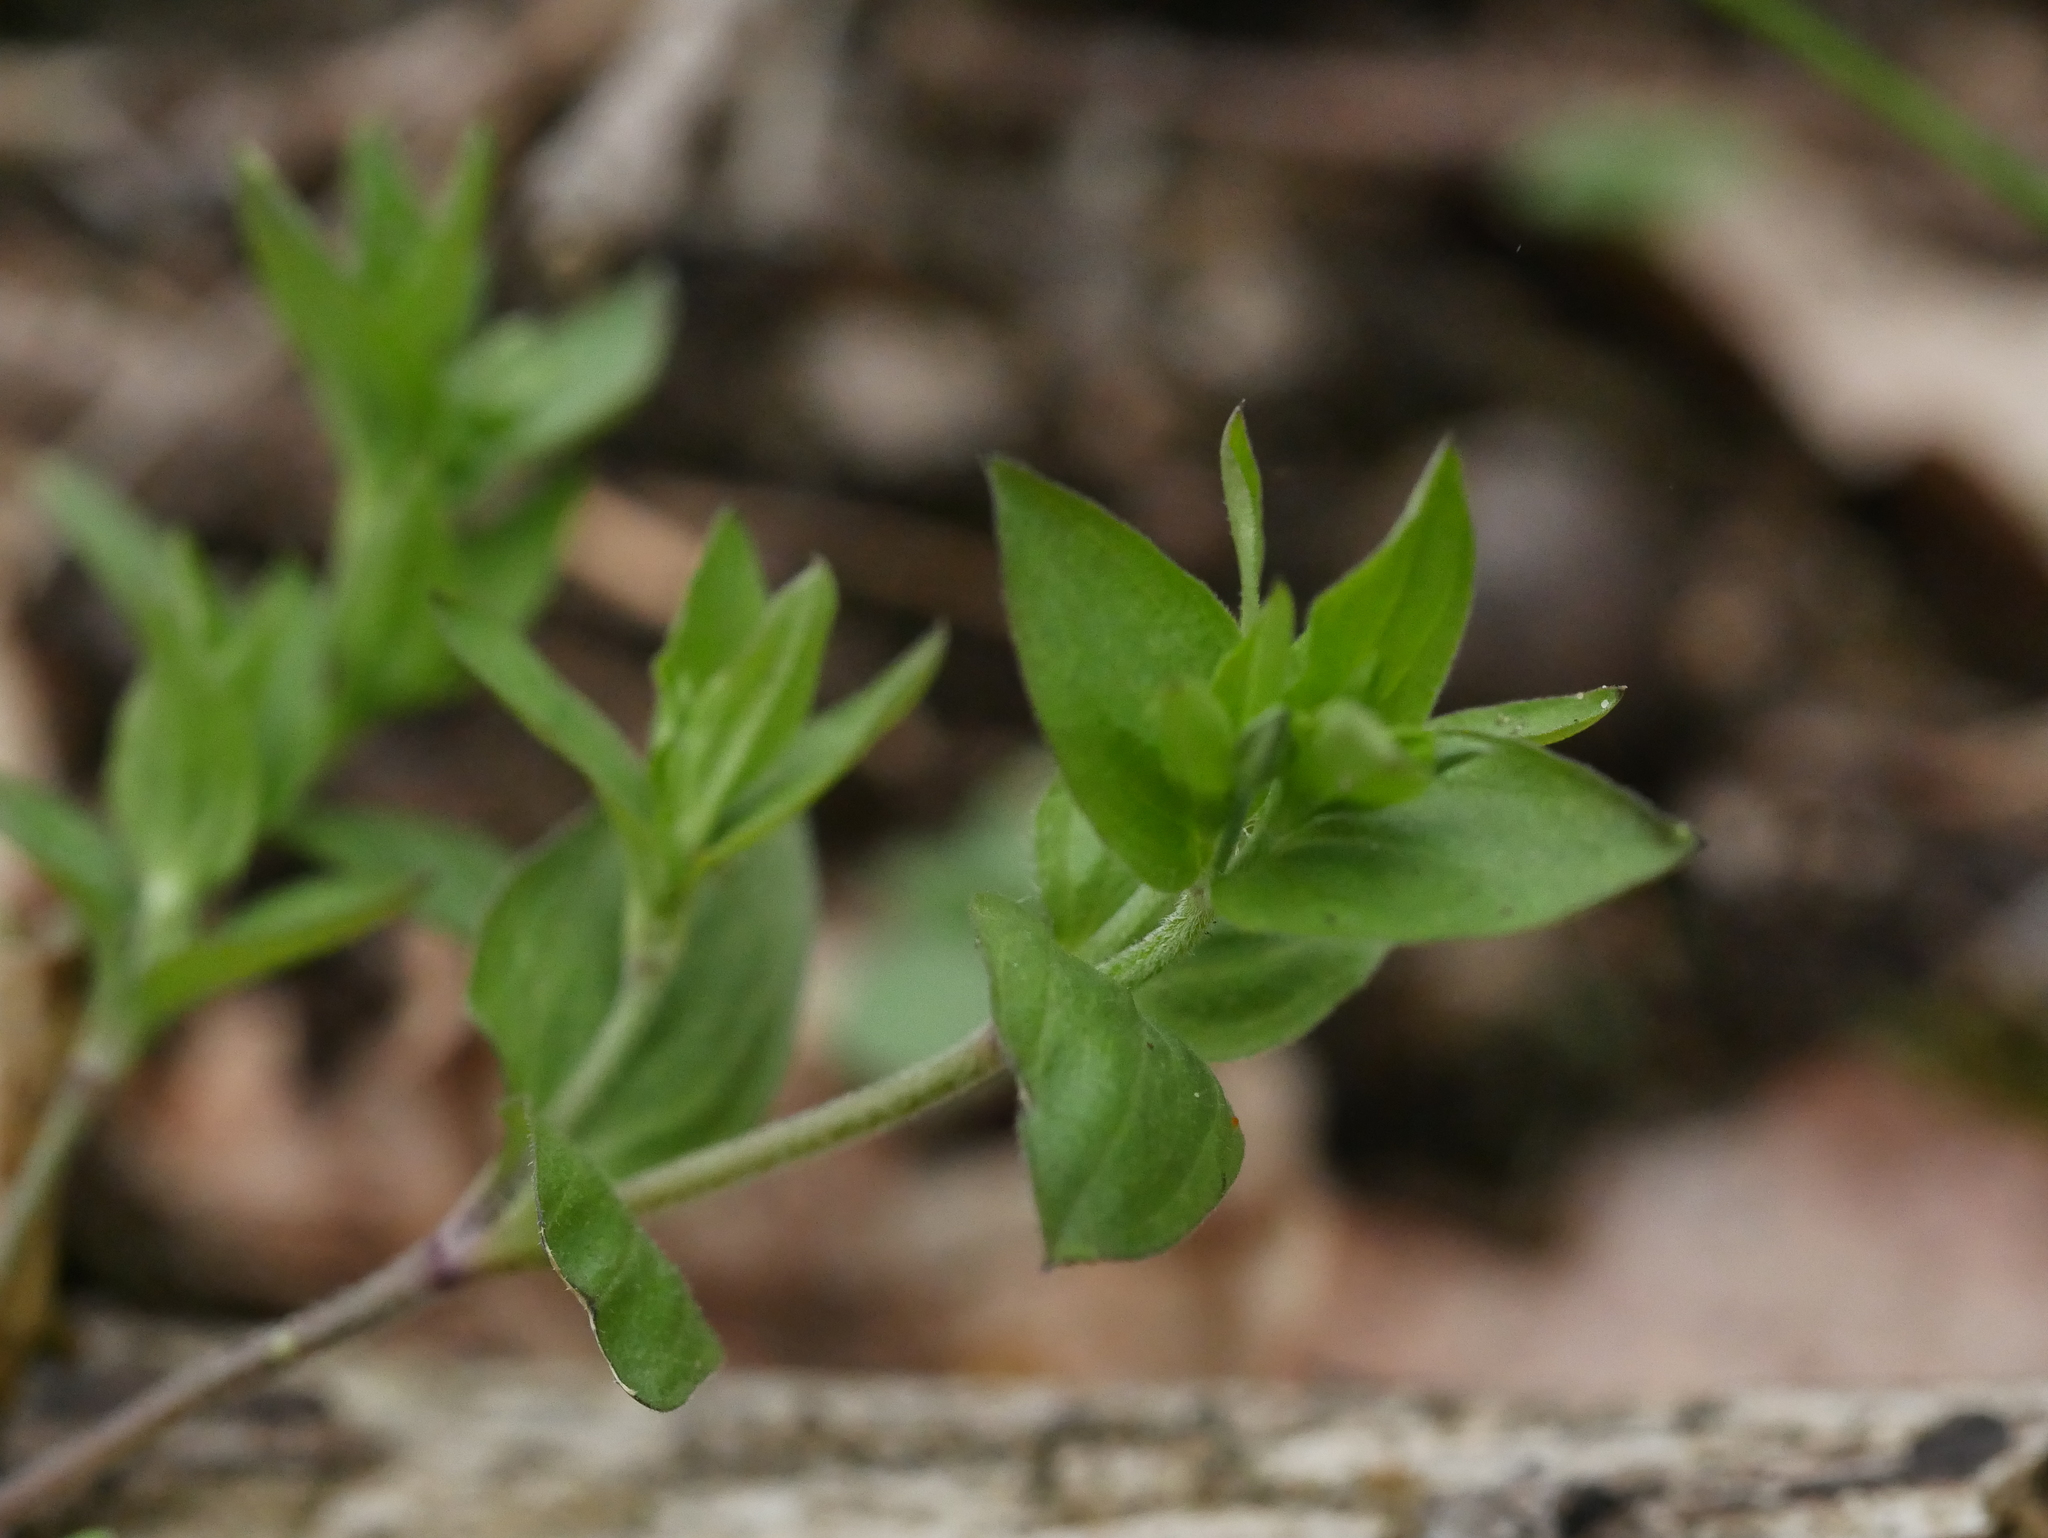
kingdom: Plantae
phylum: Tracheophyta
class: Magnoliopsida
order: Caryophyllales
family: Caryophyllaceae
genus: Moehringia
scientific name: Moehringia trinervia
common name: Three-nerved sandwort
